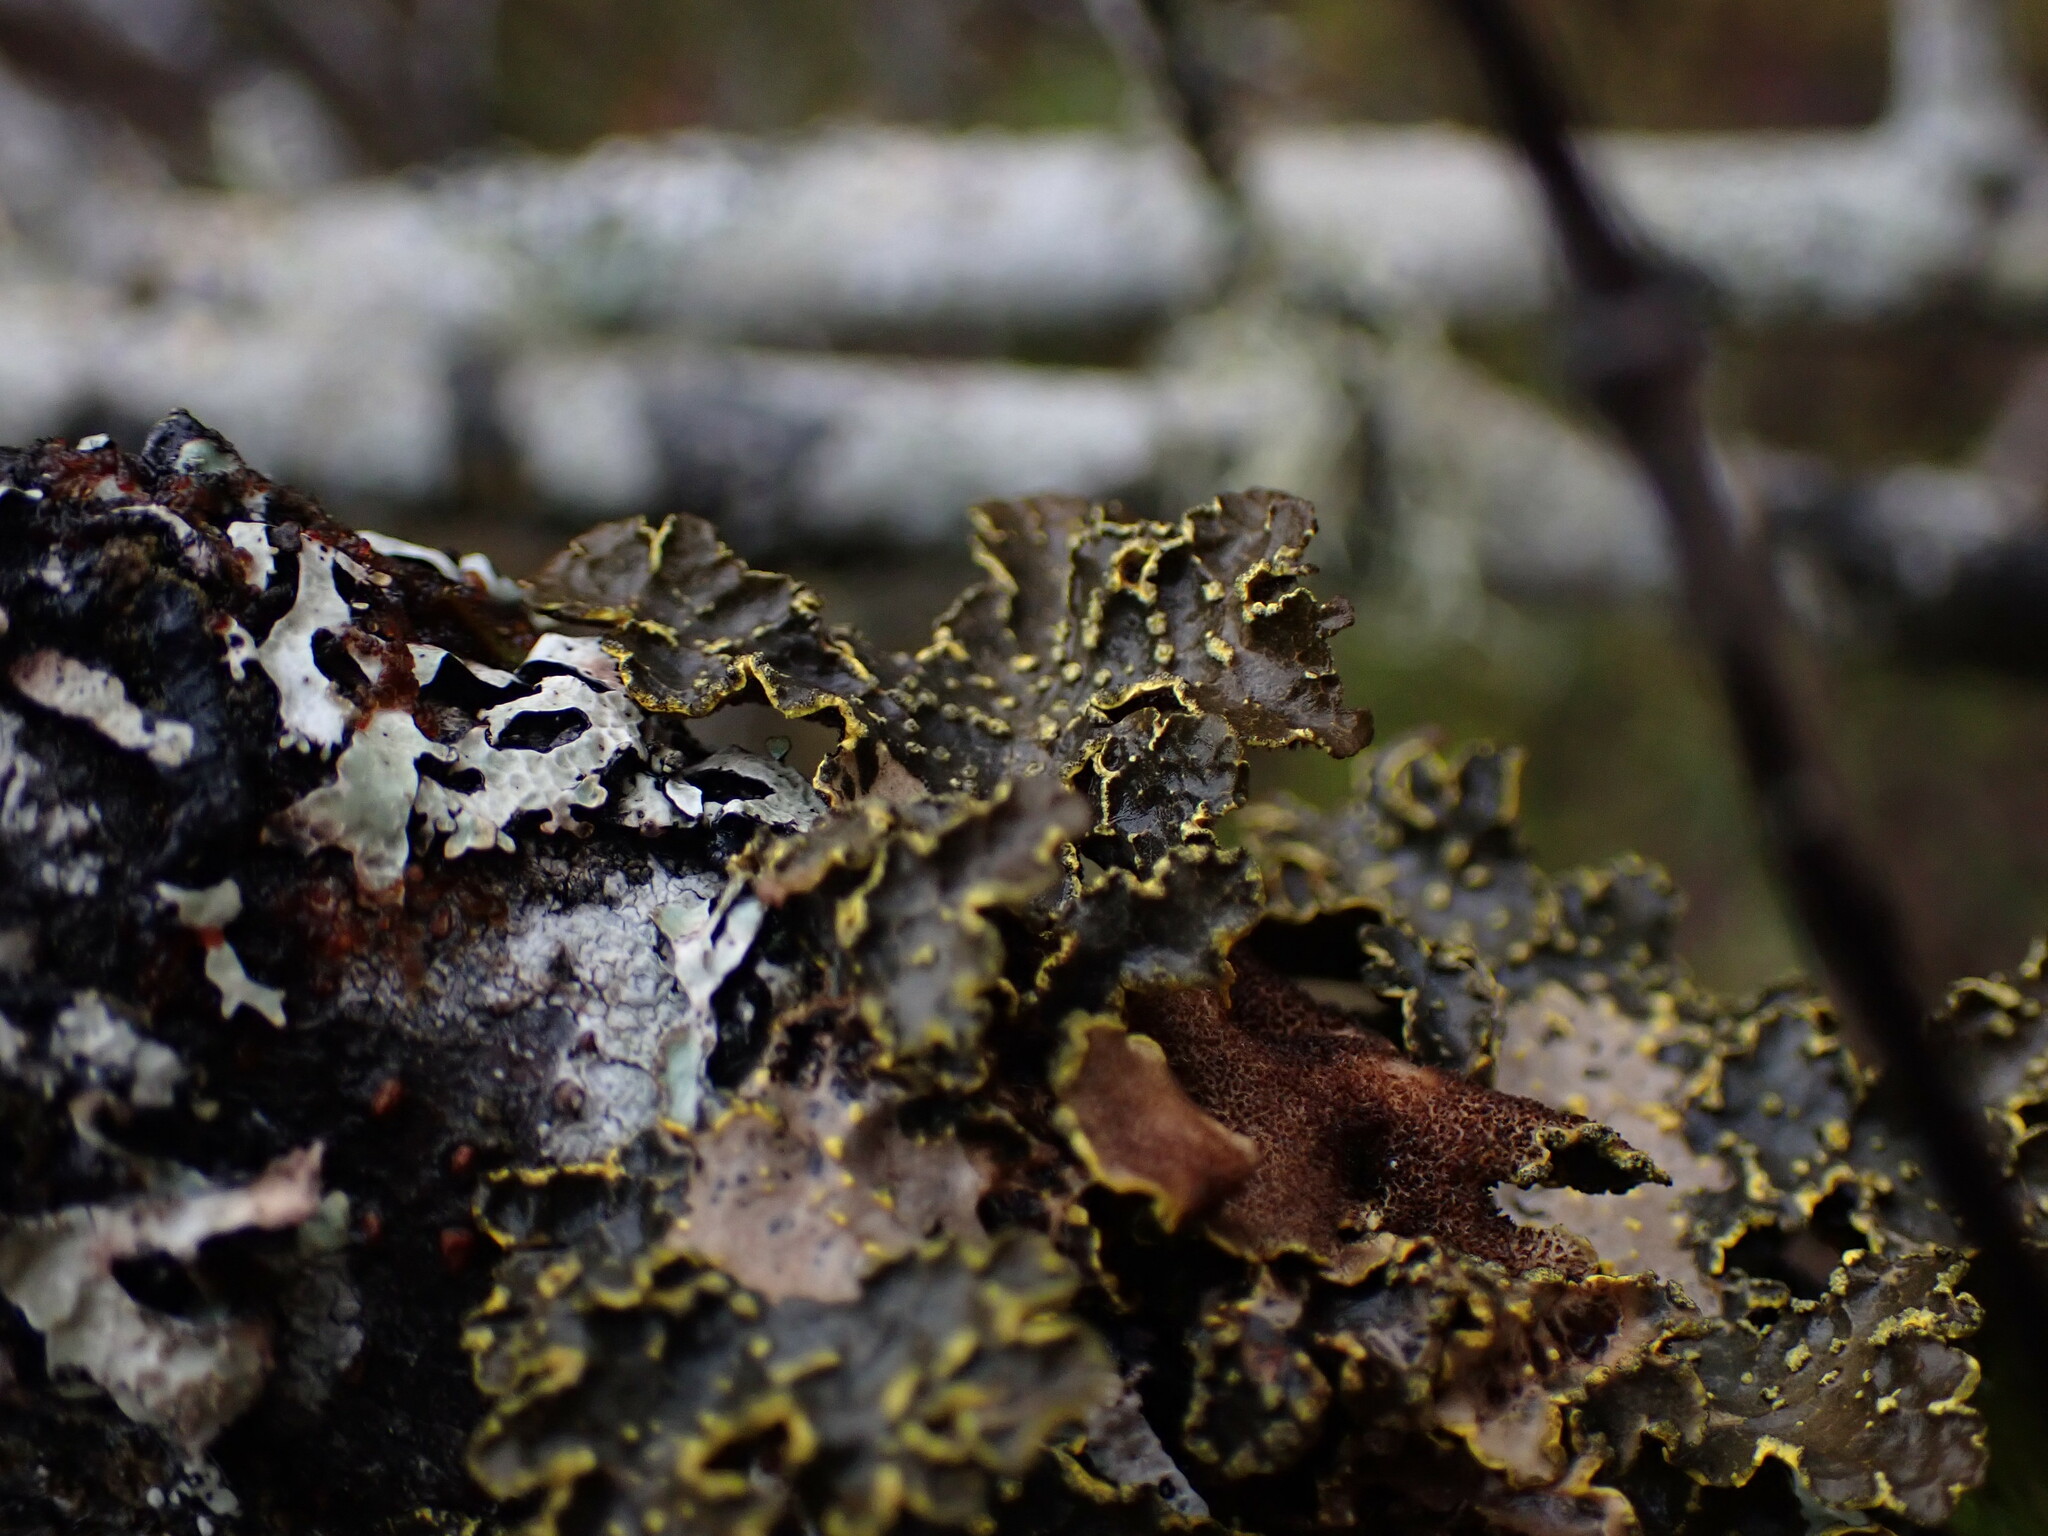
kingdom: Fungi
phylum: Ascomycota
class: Lecanoromycetes
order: Peltigerales
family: Lobariaceae
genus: Pseudocyphellaria
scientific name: Pseudocyphellaria citrina
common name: Golden specklebelly
